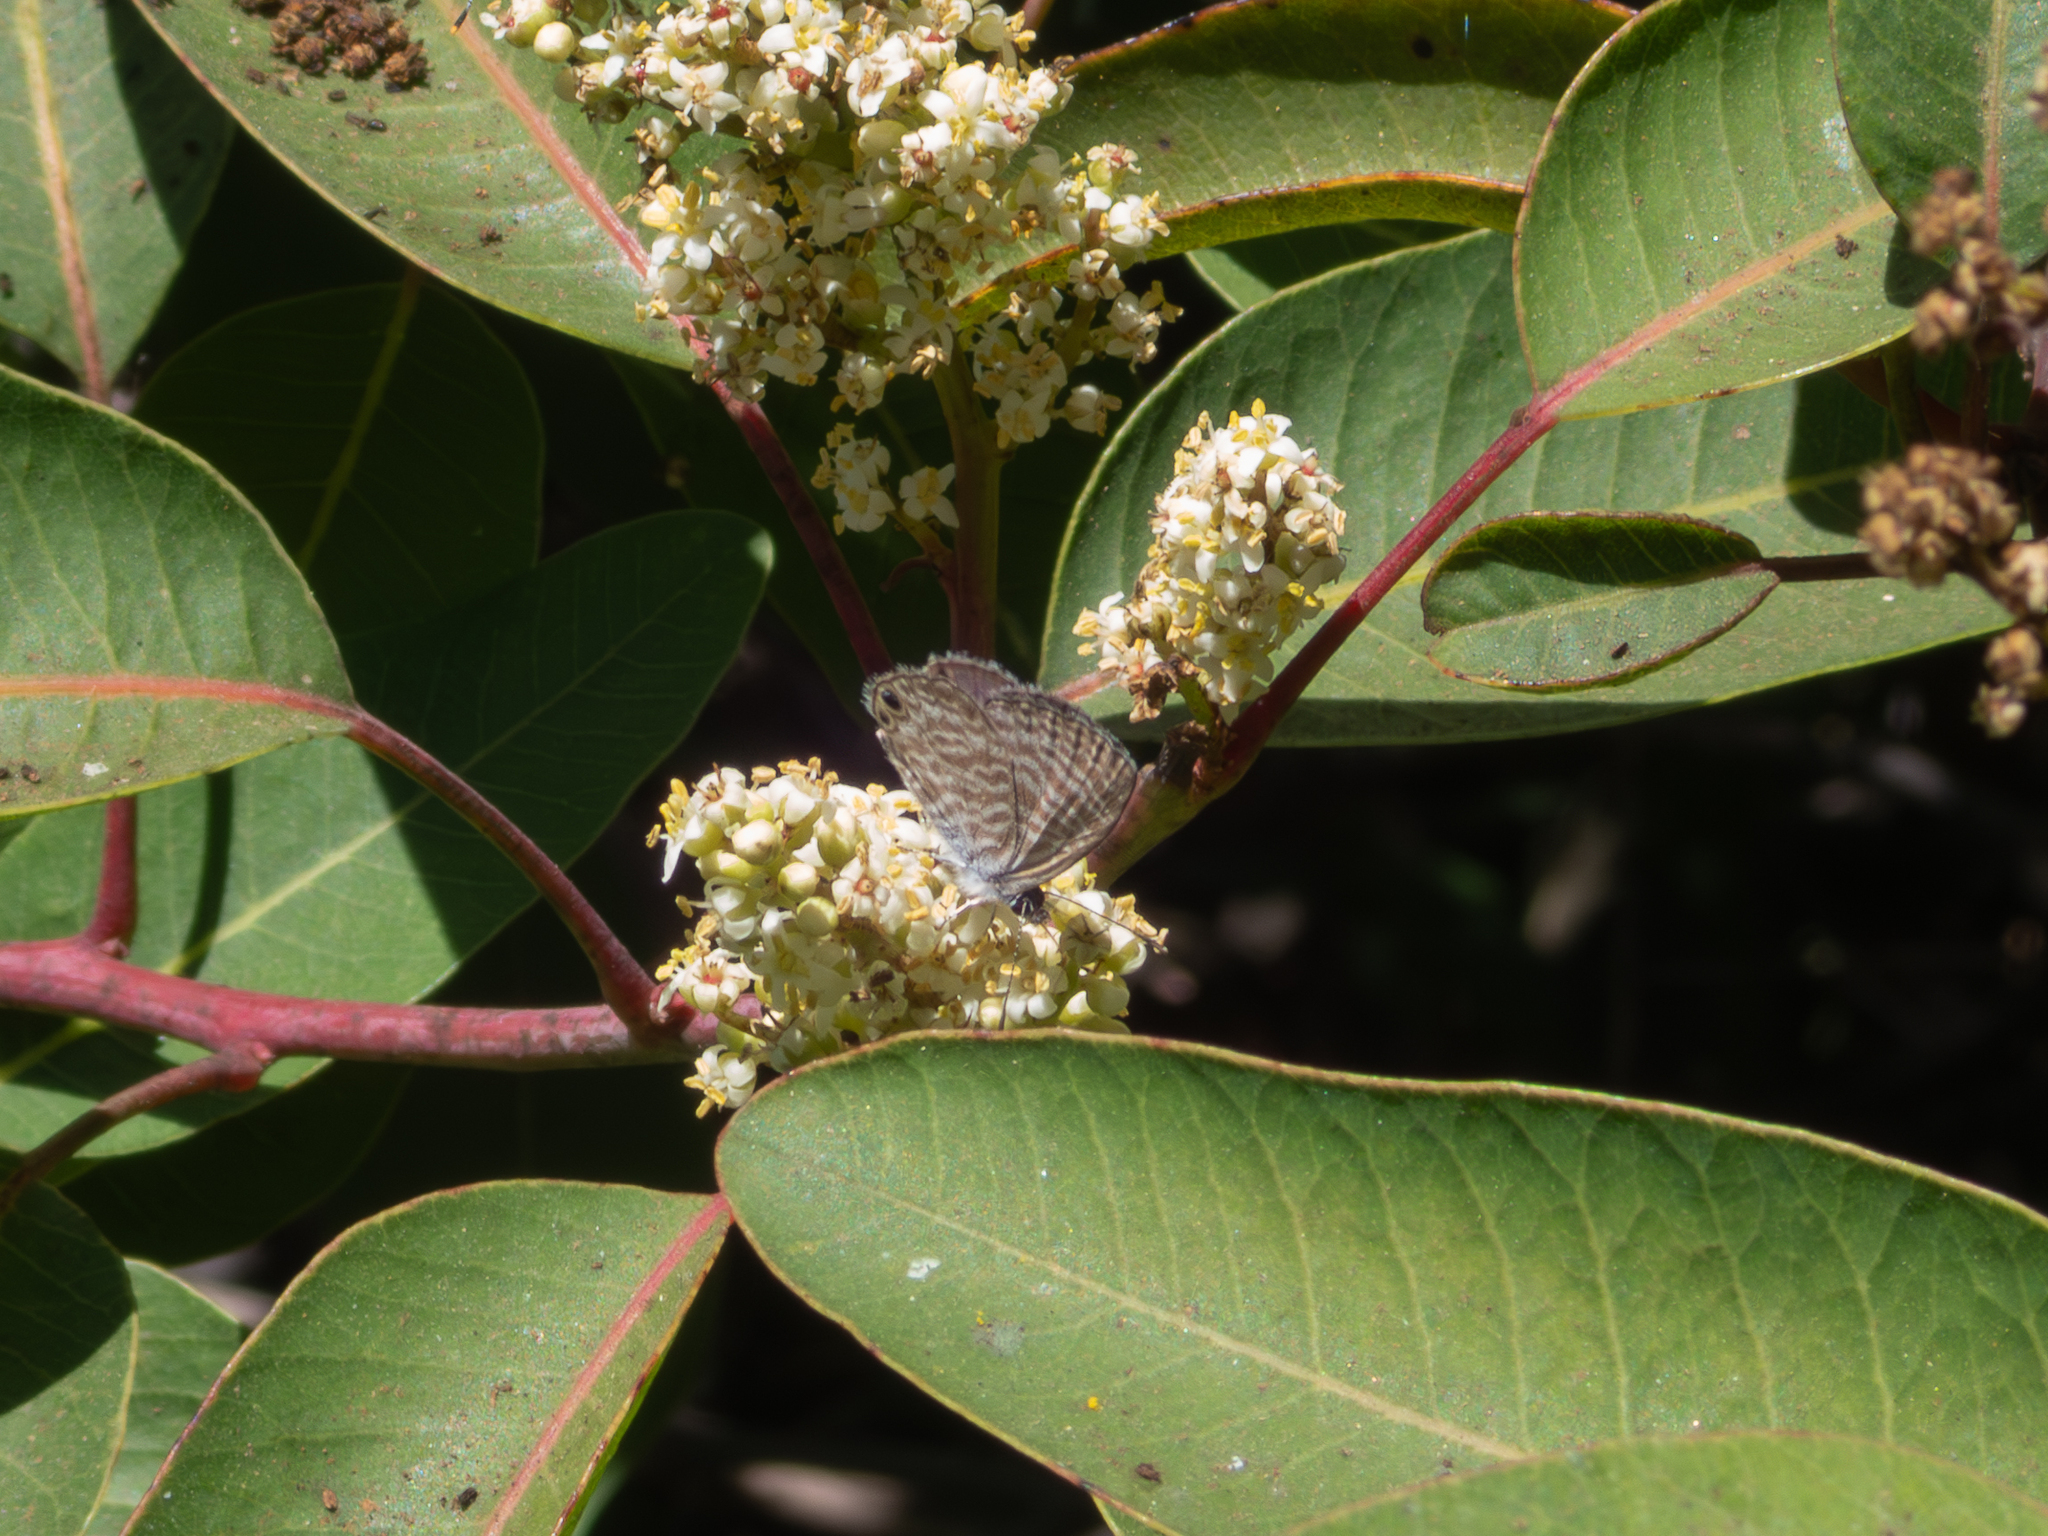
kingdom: Animalia
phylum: Arthropoda
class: Insecta
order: Lepidoptera
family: Lycaenidae
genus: Leptotes
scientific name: Leptotes marina
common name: Marine blue
